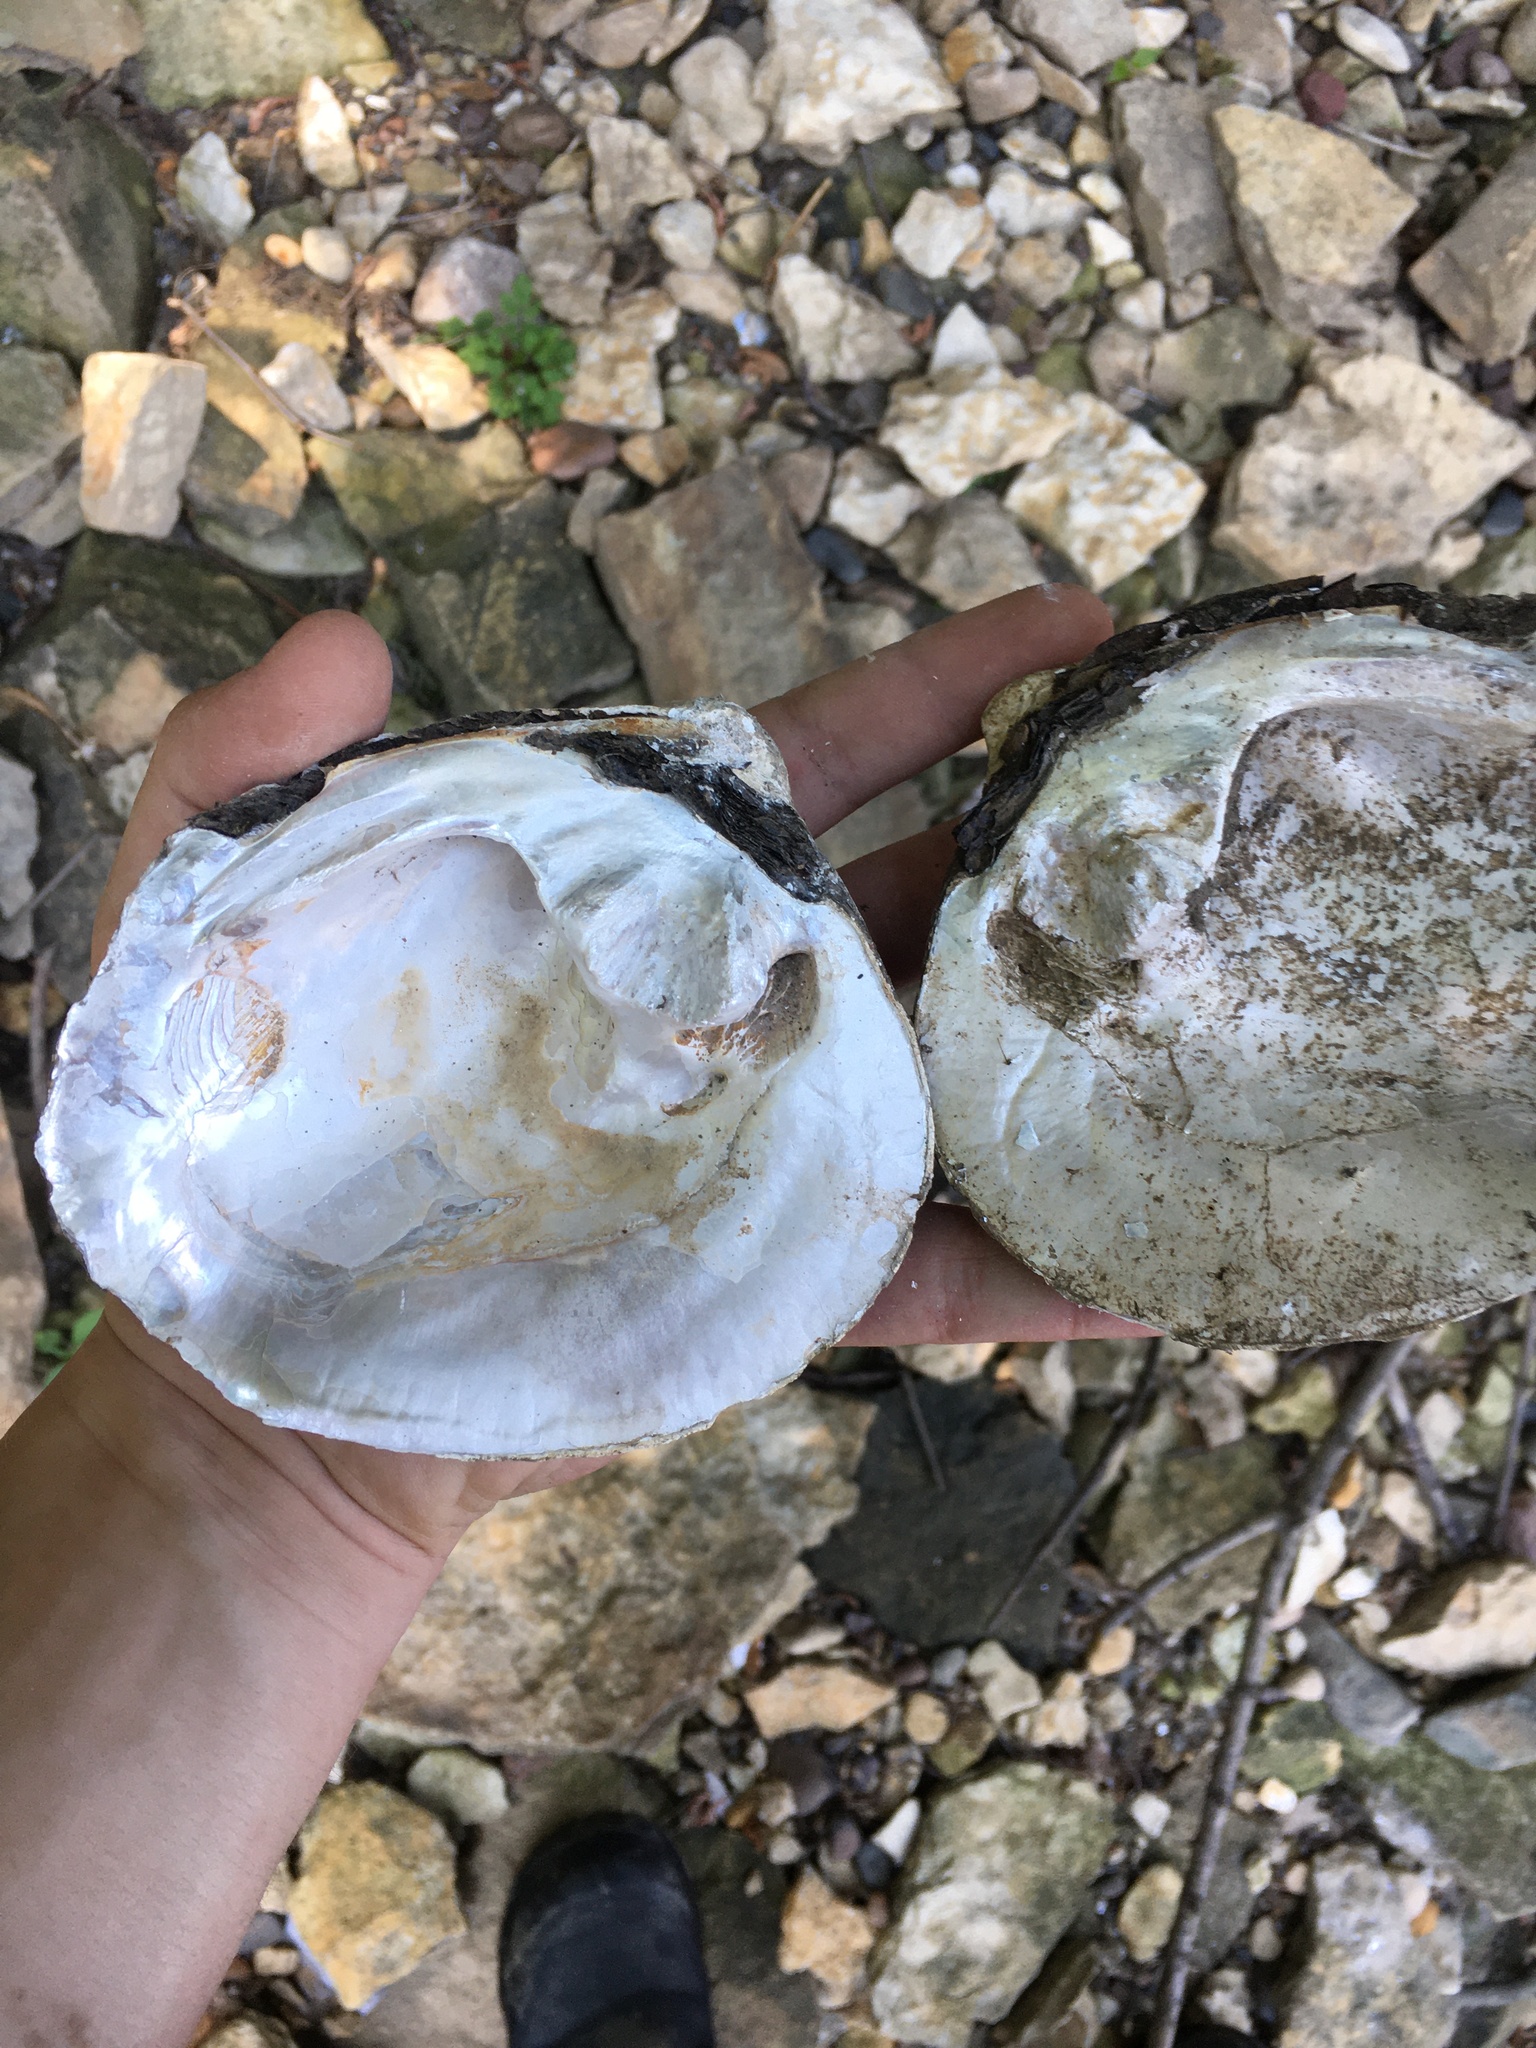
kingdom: Animalia
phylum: Mollusca
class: Bivalvia
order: Unionida
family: Unionidae
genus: Cyclonaias
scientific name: Cyclonaias tuberculata
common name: Purple wartyback
